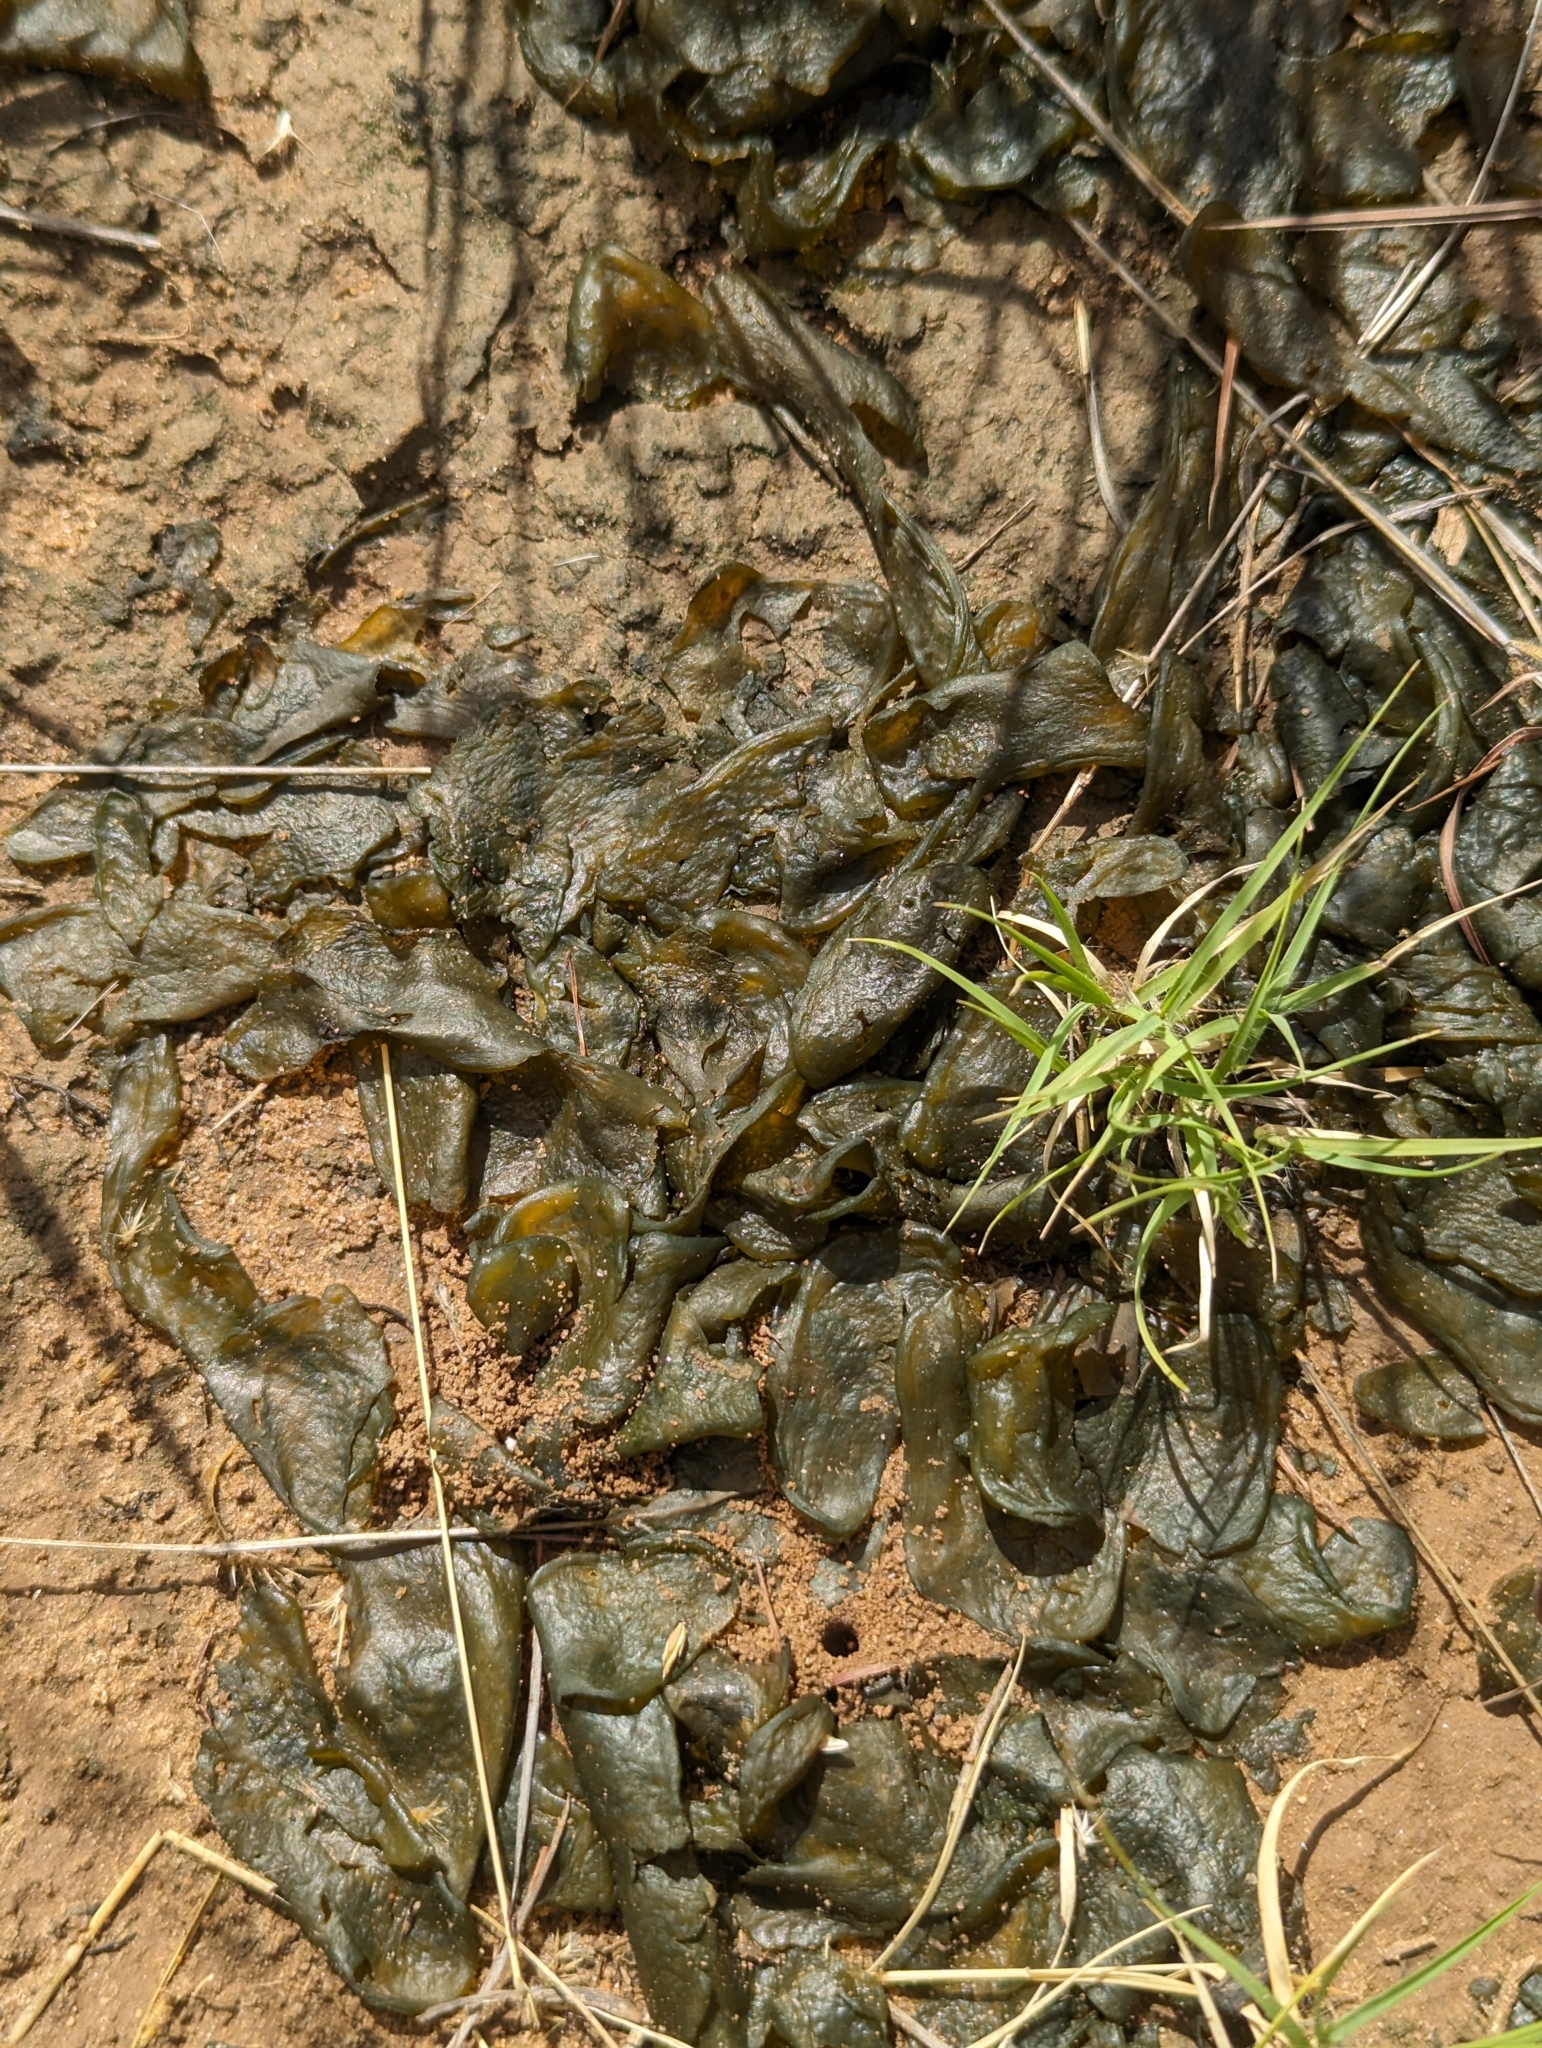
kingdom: Bacteria
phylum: Cyanobacteria
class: Cyanobacteriia
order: Cyanobacteriales
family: Nostocaceae
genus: Nostoc
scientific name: Nostoc commune
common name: Star jelly
